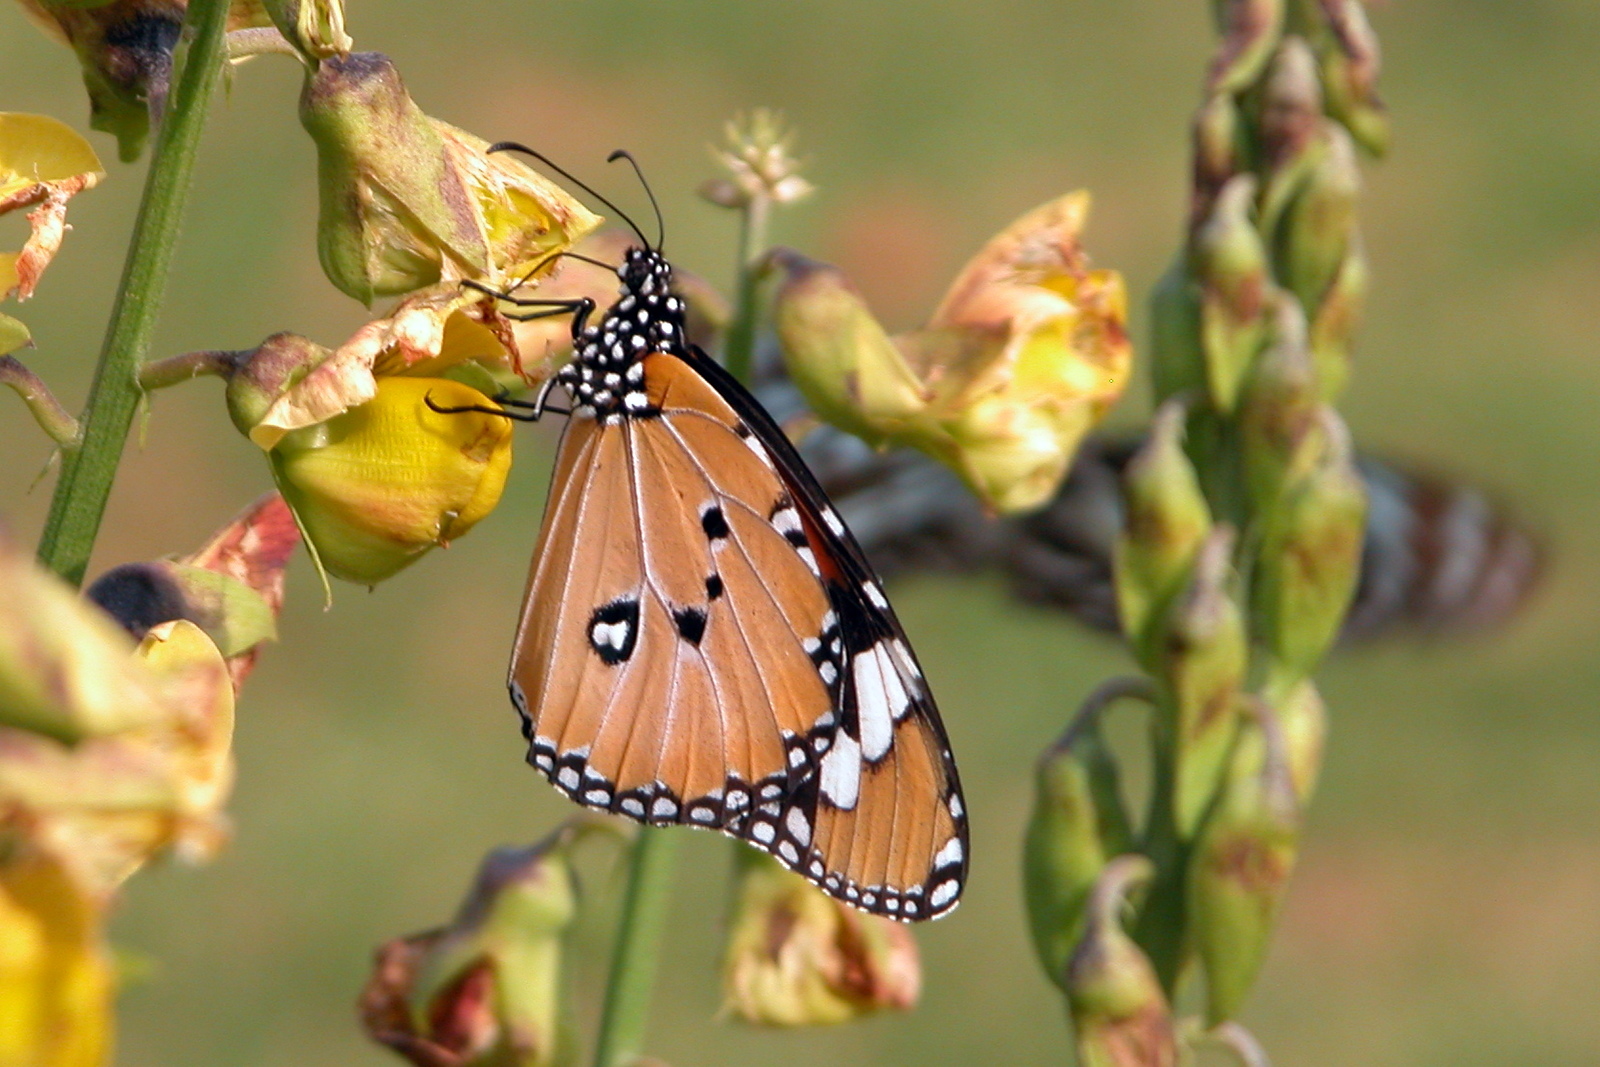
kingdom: Animalia
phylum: Arthropoda
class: Insecta
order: Lepidoptera
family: Nymphalidae
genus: Danaus
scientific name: Danaus chrysippus
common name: Plain tiger
